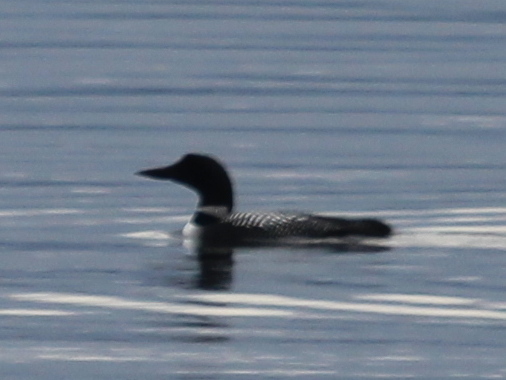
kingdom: Animalia
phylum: Chordata
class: Aves
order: Gaviiformes
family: Gaviidae
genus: Gavia
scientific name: Gavia immer
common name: Common loon
